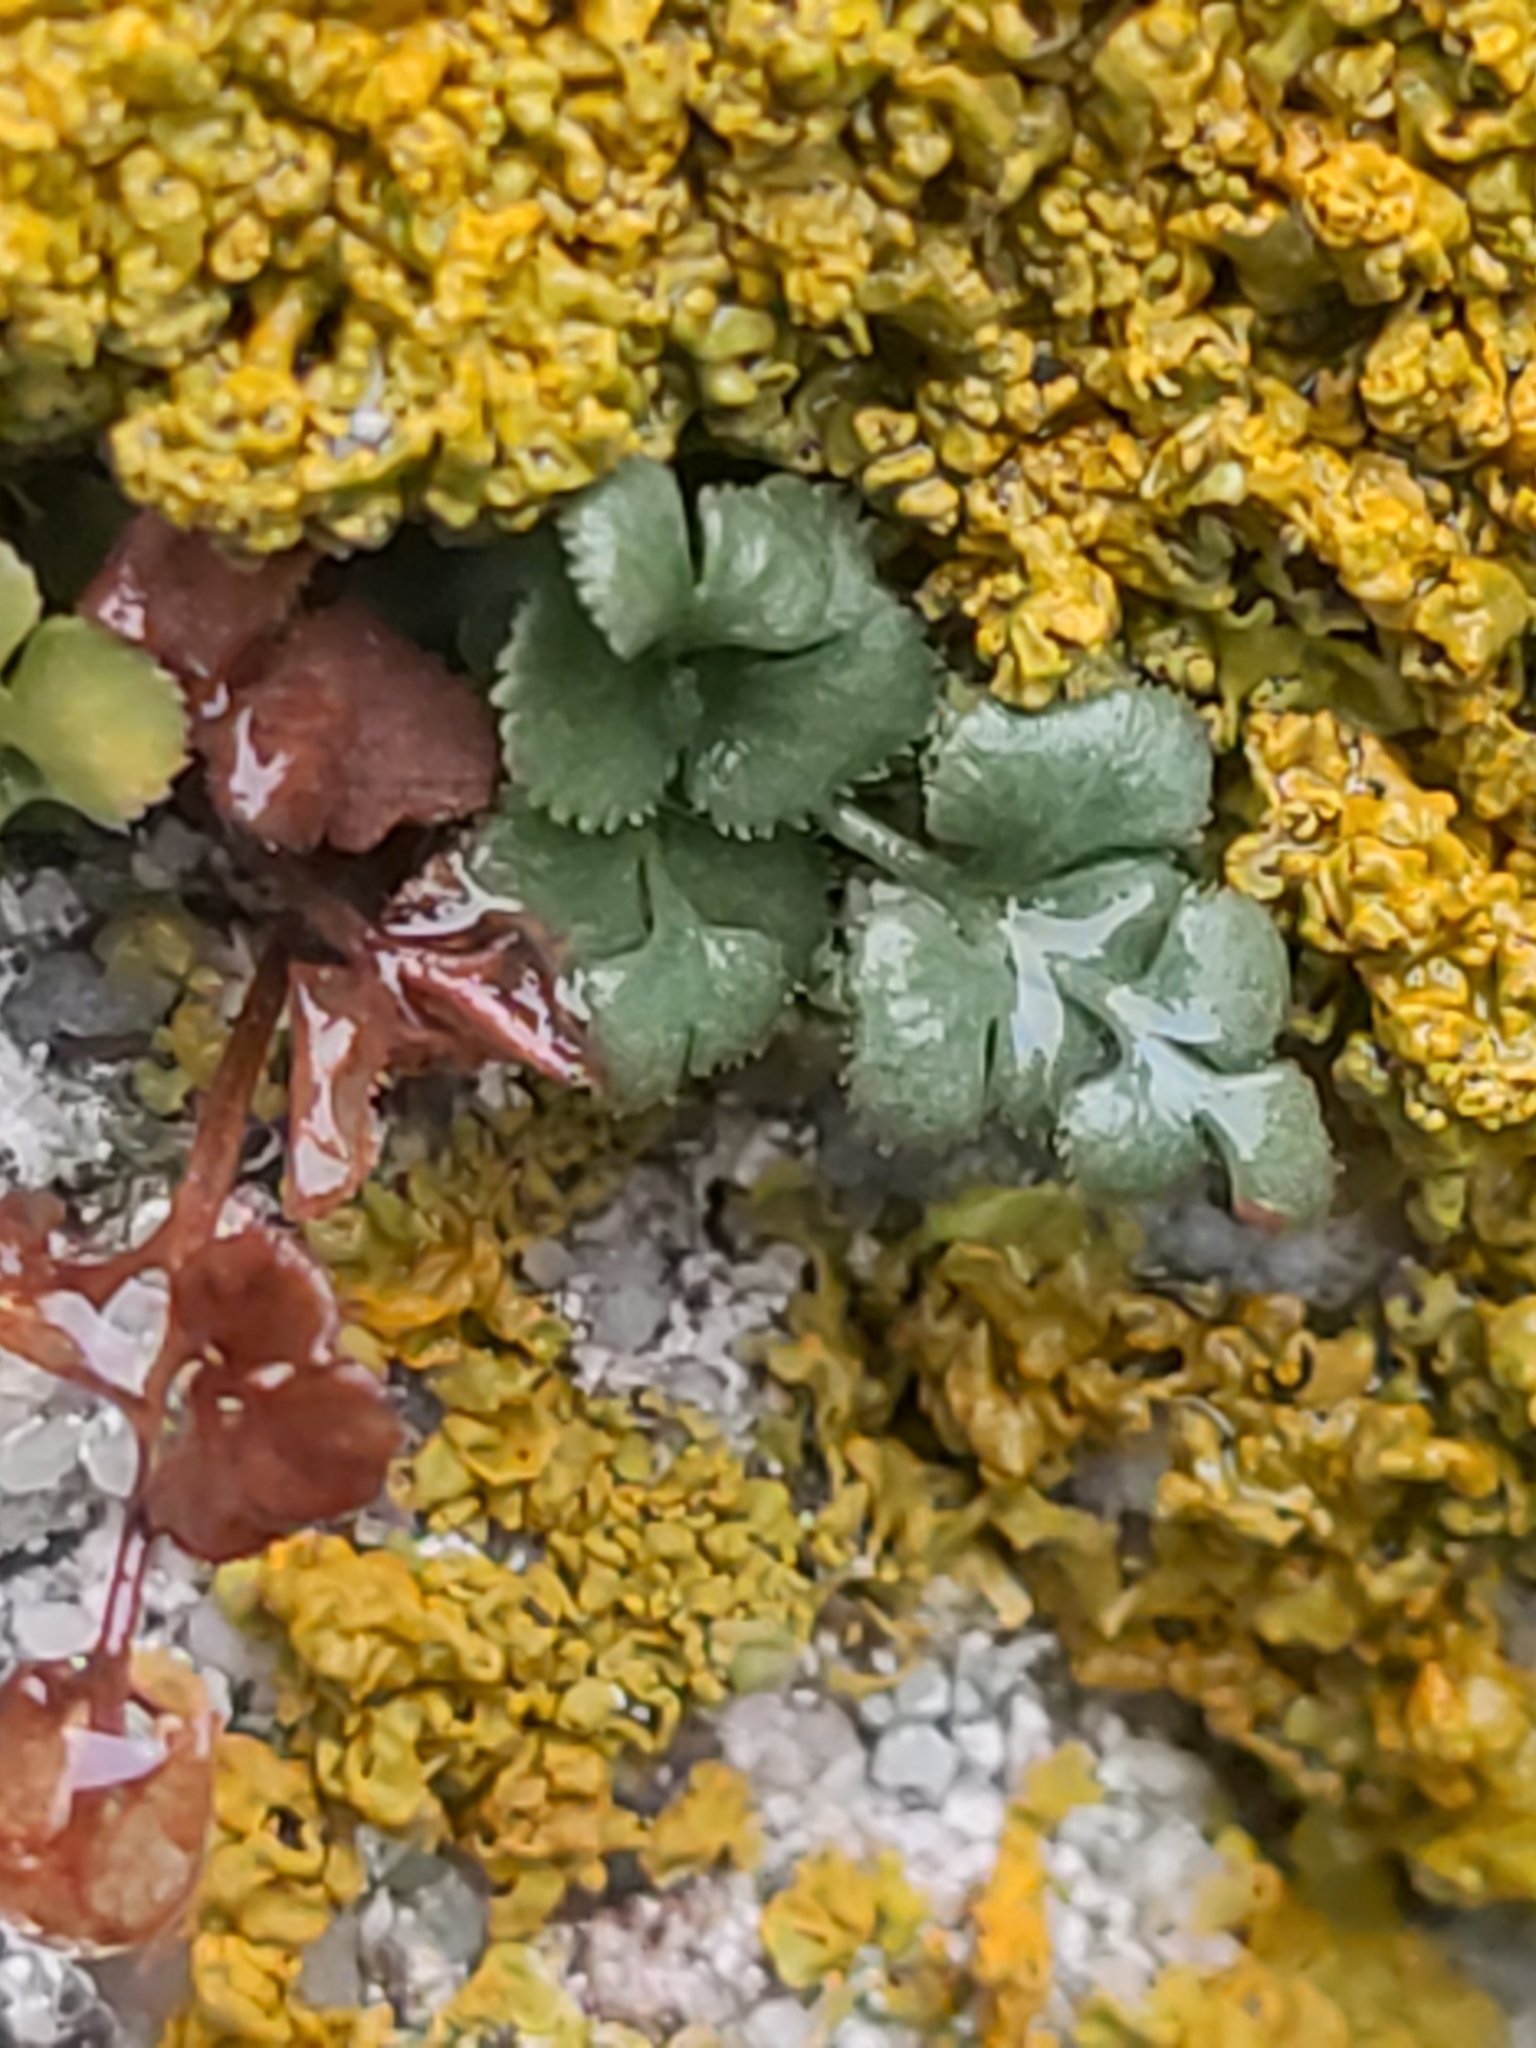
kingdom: Plantae
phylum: Tracheophyta
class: Polypodiopsida
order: Polypodiales
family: Aspleniaceae
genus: Asplenium
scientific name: Asplenium ruta-muraria
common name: Wall-rue
